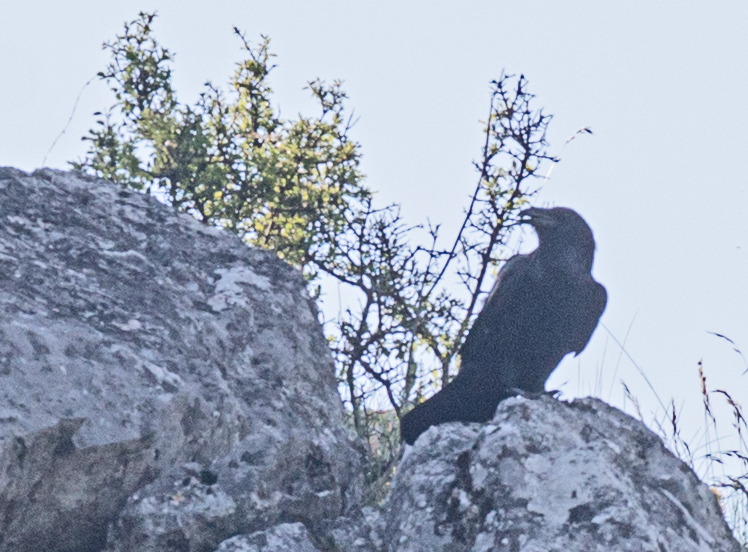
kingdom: Animalia
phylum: Chordata
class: Aves
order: Passeriformes
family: Corvidae
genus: Corvus
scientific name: Corvus corax
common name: Common raven
